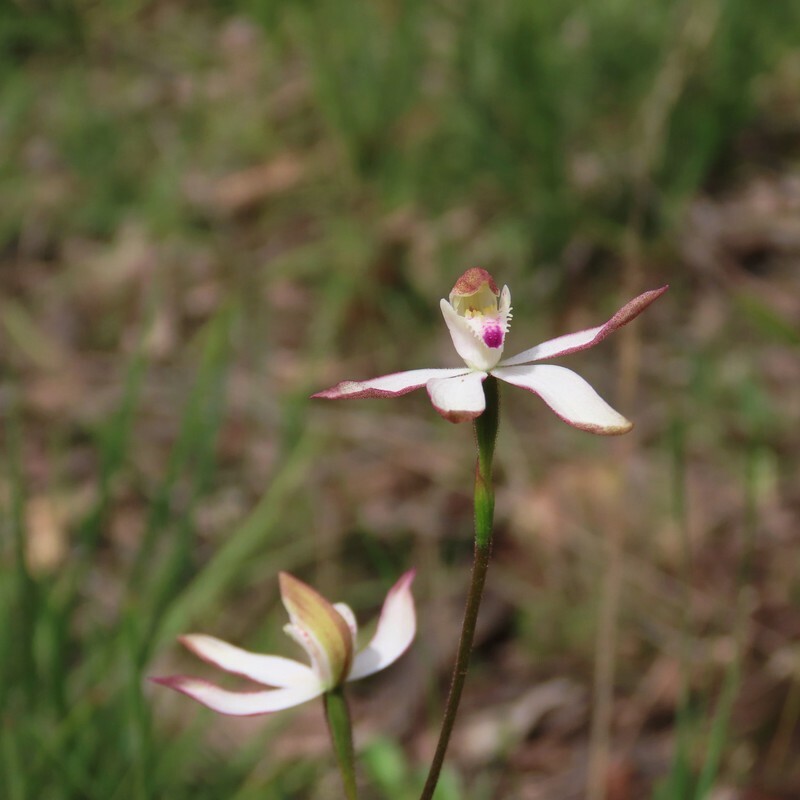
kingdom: Plantae
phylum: Tracheophyta
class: Liliopsida
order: Asparagales
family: Orchidaceae
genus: Caladenia
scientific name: Caladenia moschata
